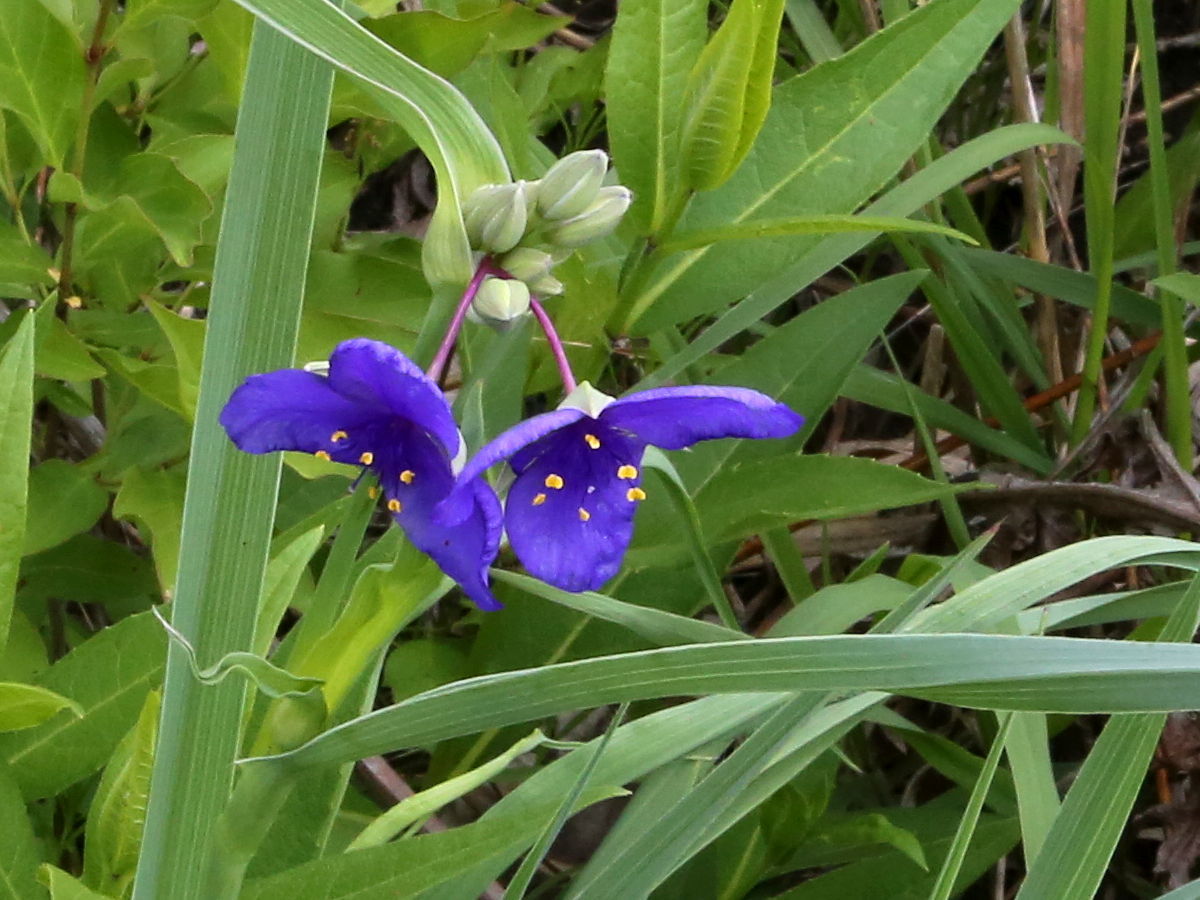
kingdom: Plantae
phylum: Tracheophyta
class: Liliopsida
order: Commelinales
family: Commelinaceae
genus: Tradescantia
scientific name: Tradescantia ohiensis
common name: Ohio spiderwort
